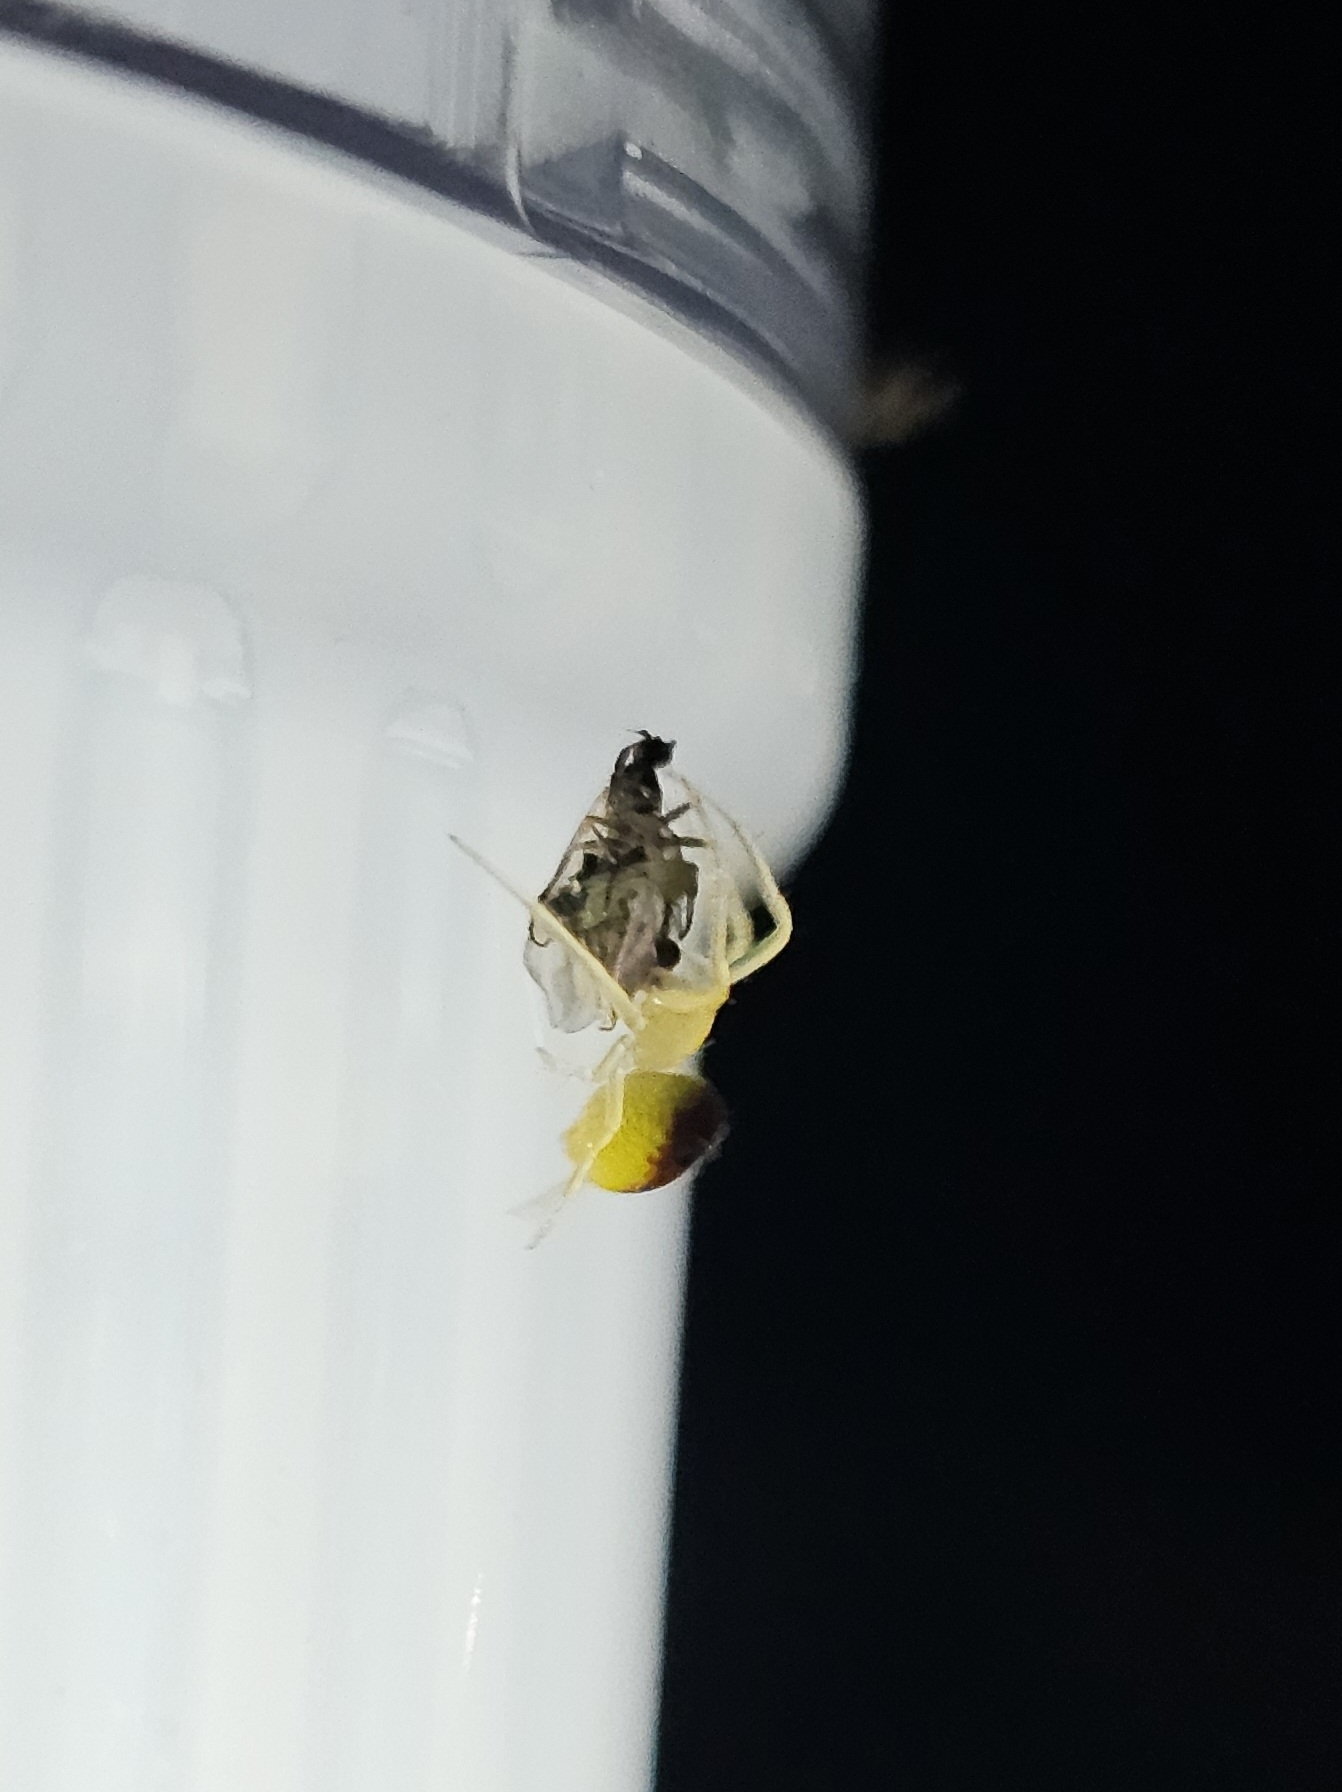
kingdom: Animalia
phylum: Arthropoda
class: Arachnida
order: Araneae
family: Araneidae
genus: Araneus
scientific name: Araneus alboventris
